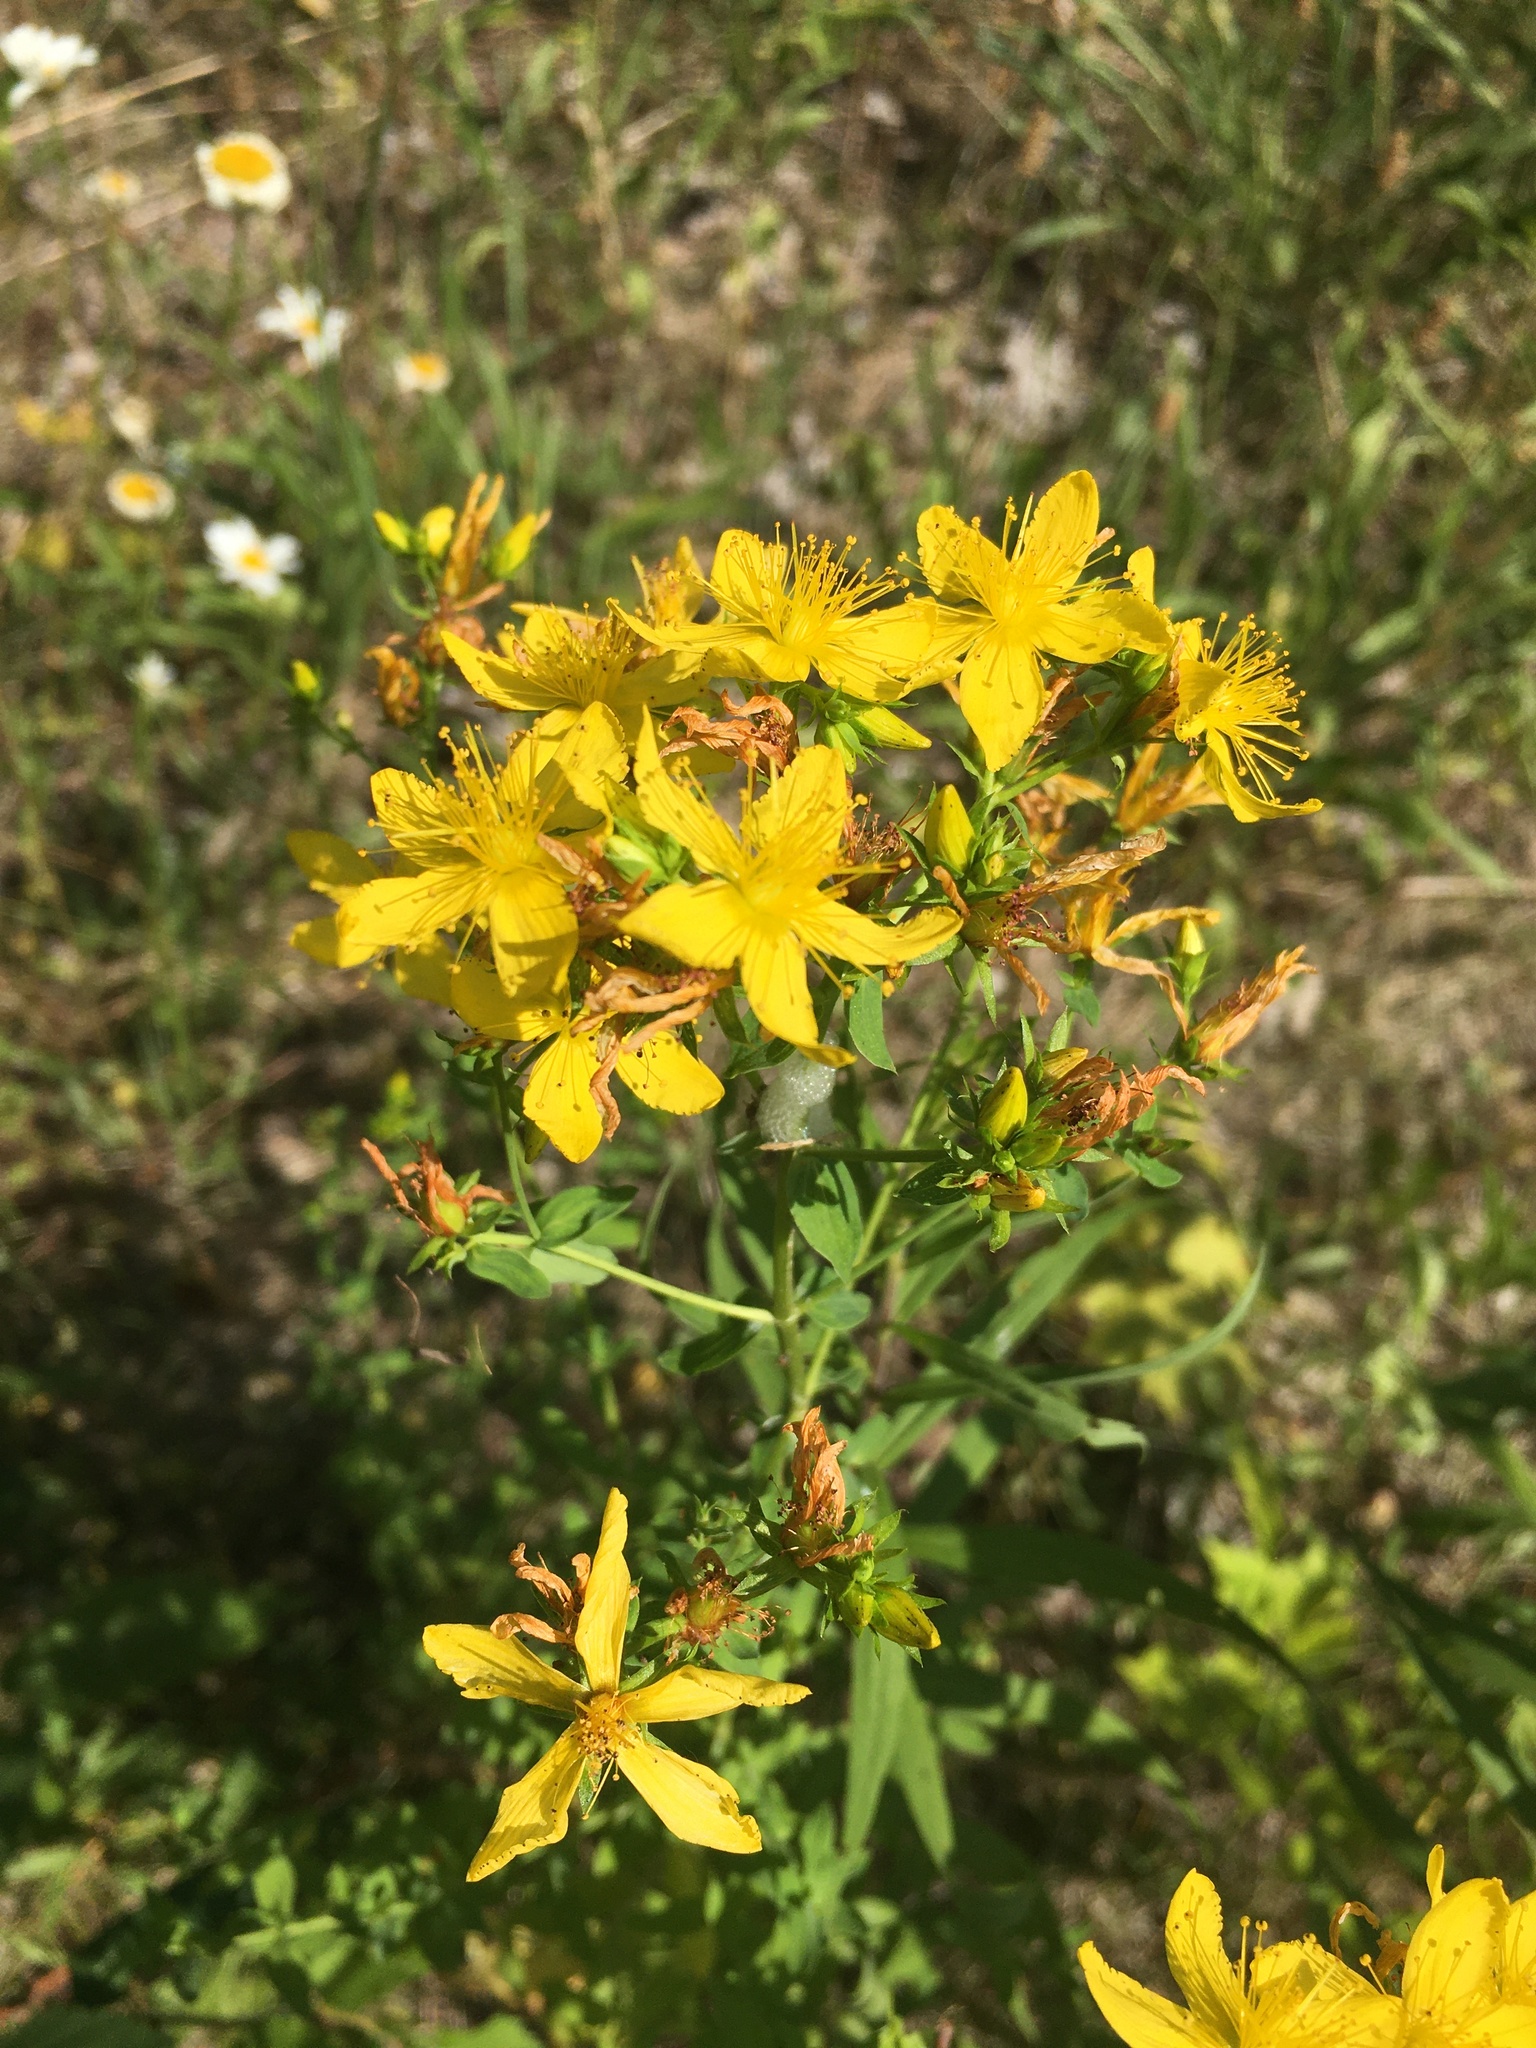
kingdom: Plantae
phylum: Tracheophyta
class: Magnoliopsida
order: Malpighiales
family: Hypericaceae
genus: Hypericum
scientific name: Hypericum perforatum
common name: Common st. johnswort
